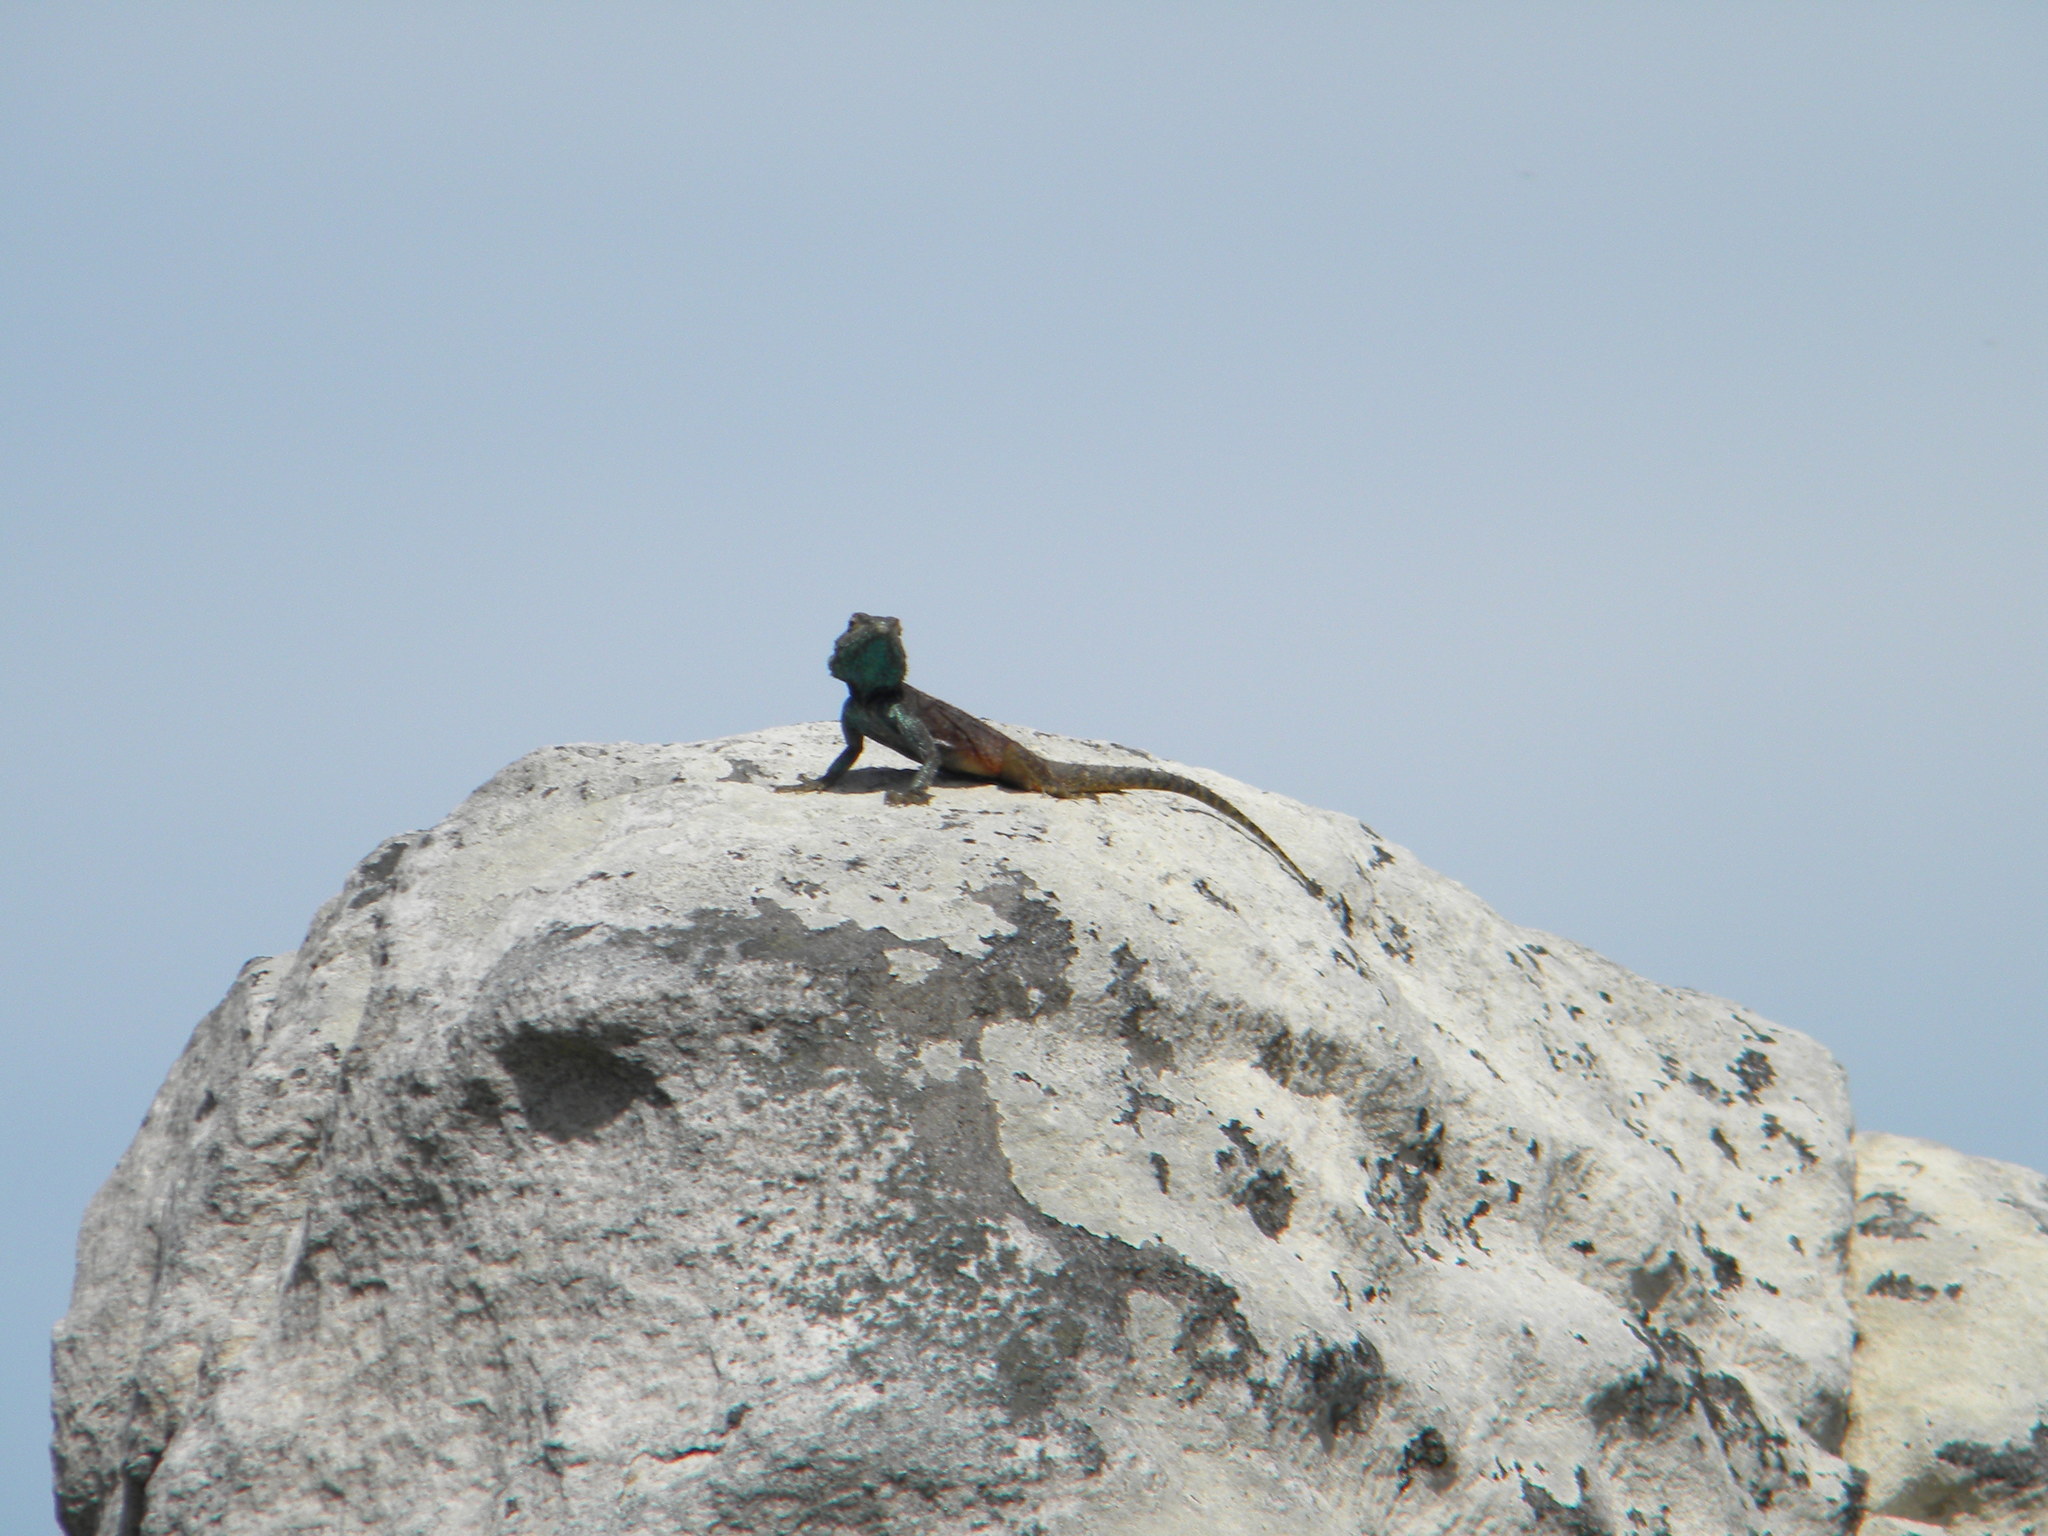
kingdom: Animalia
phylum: Chordata
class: Squamata
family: Agamidae
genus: Agama
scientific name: Agama atra
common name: Southern african rock agama
